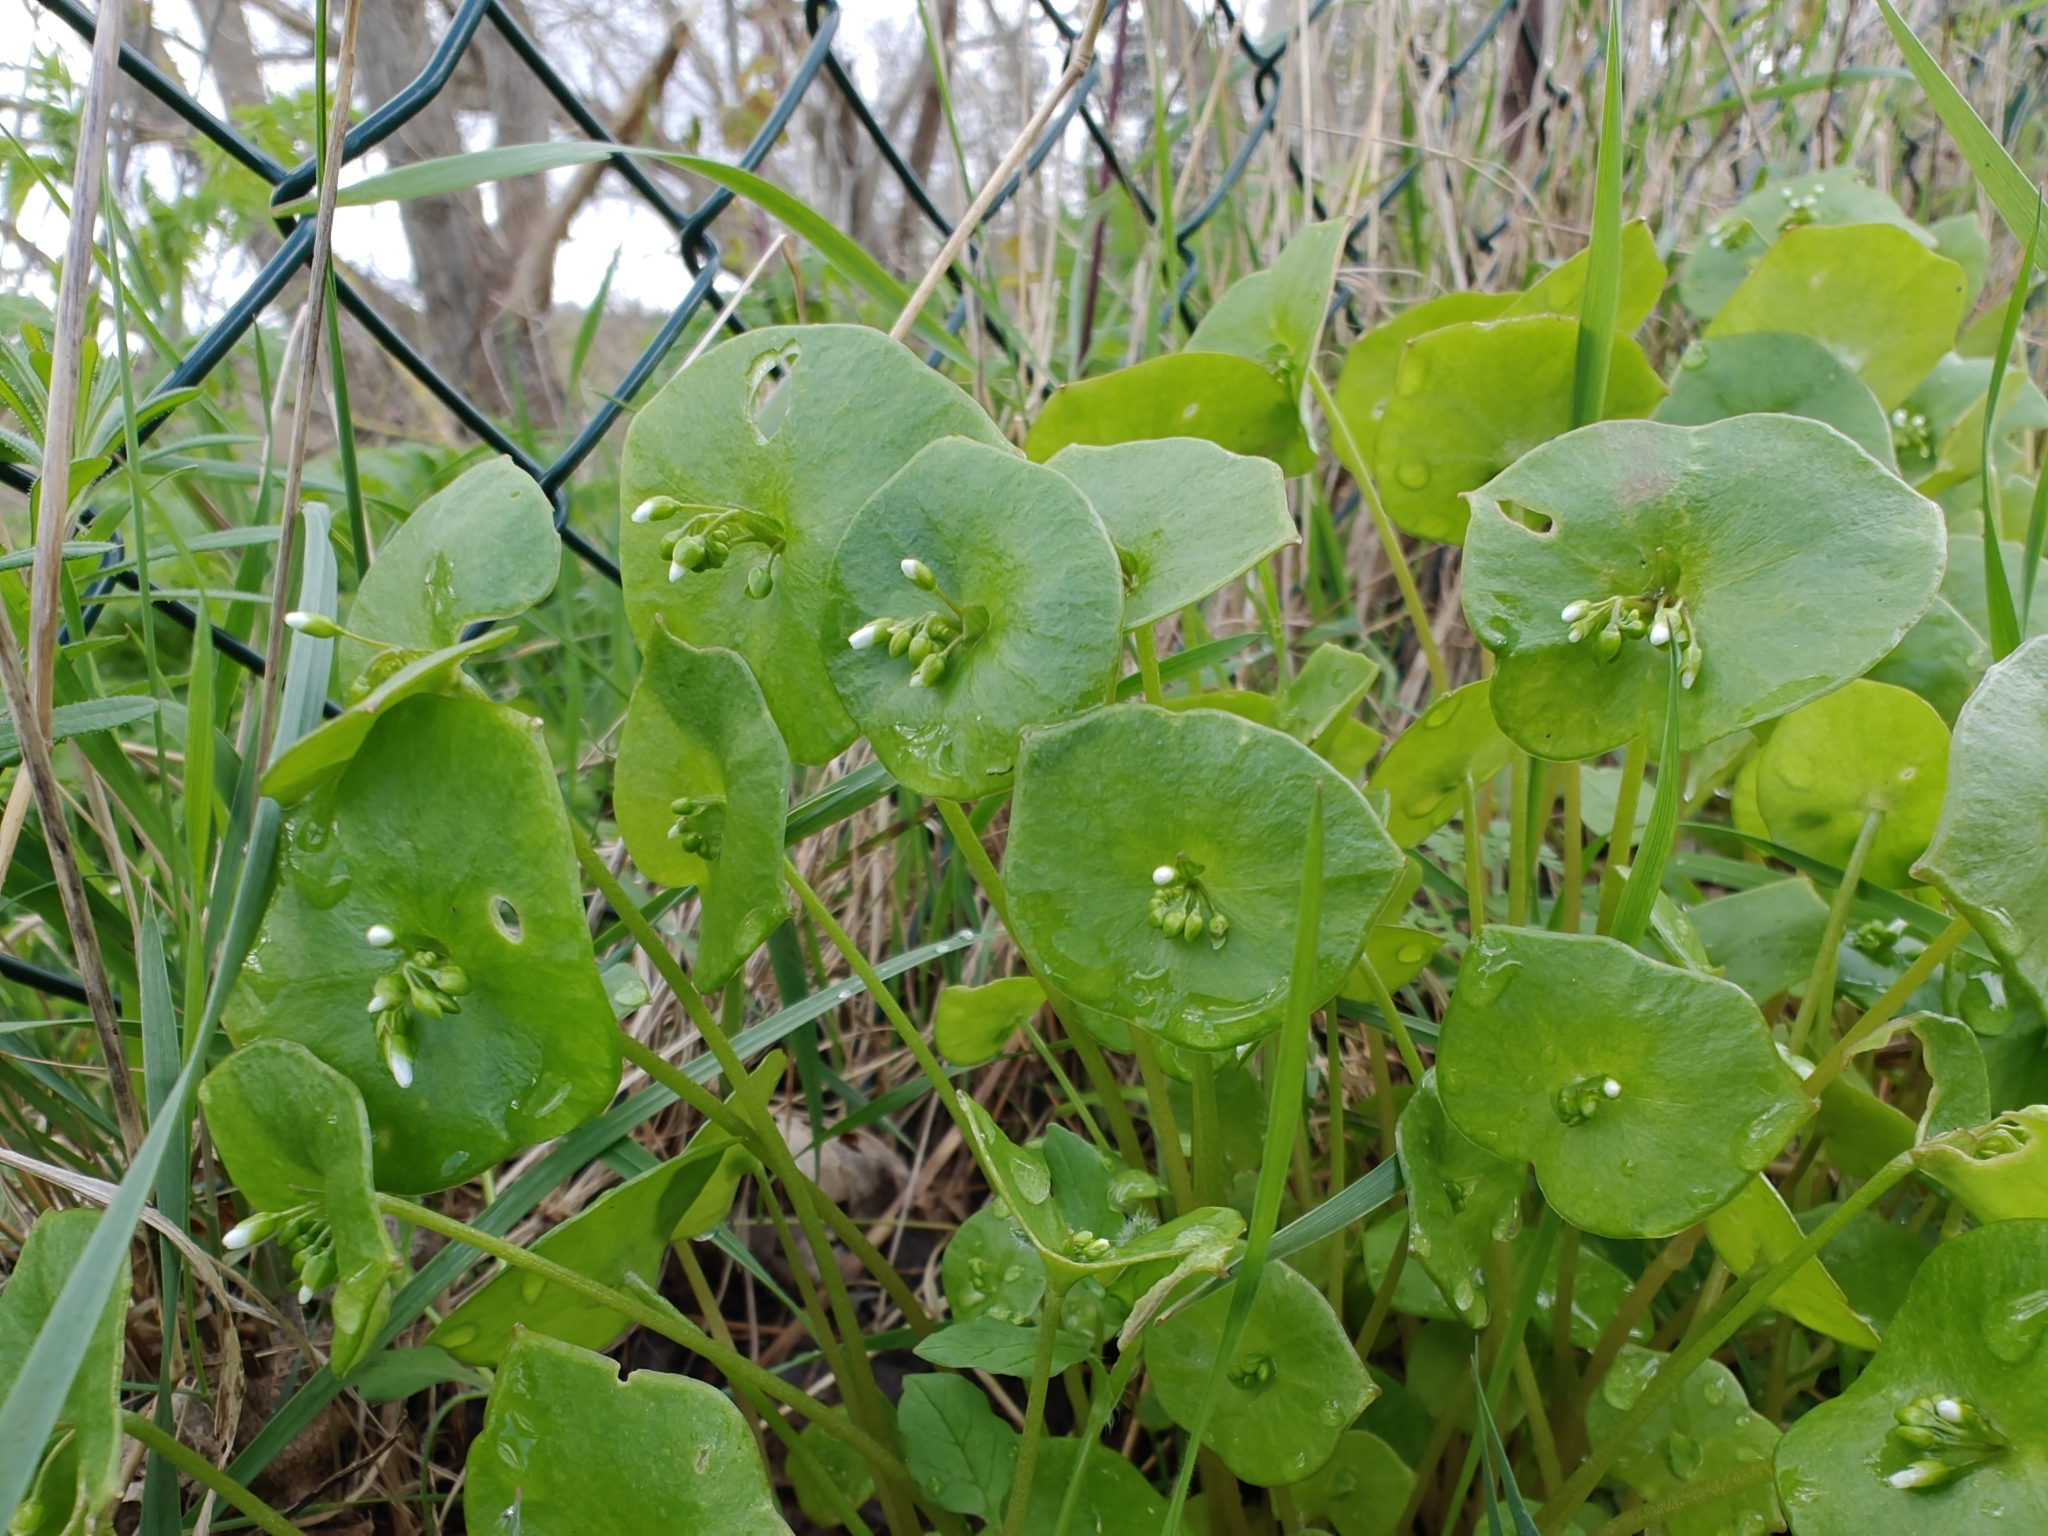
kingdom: Plantae
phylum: Tracheophyta
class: Magnoliopsida
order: Caryophyllales
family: Montiaceae
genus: Claytonia
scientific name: Claytonia perfoliata
